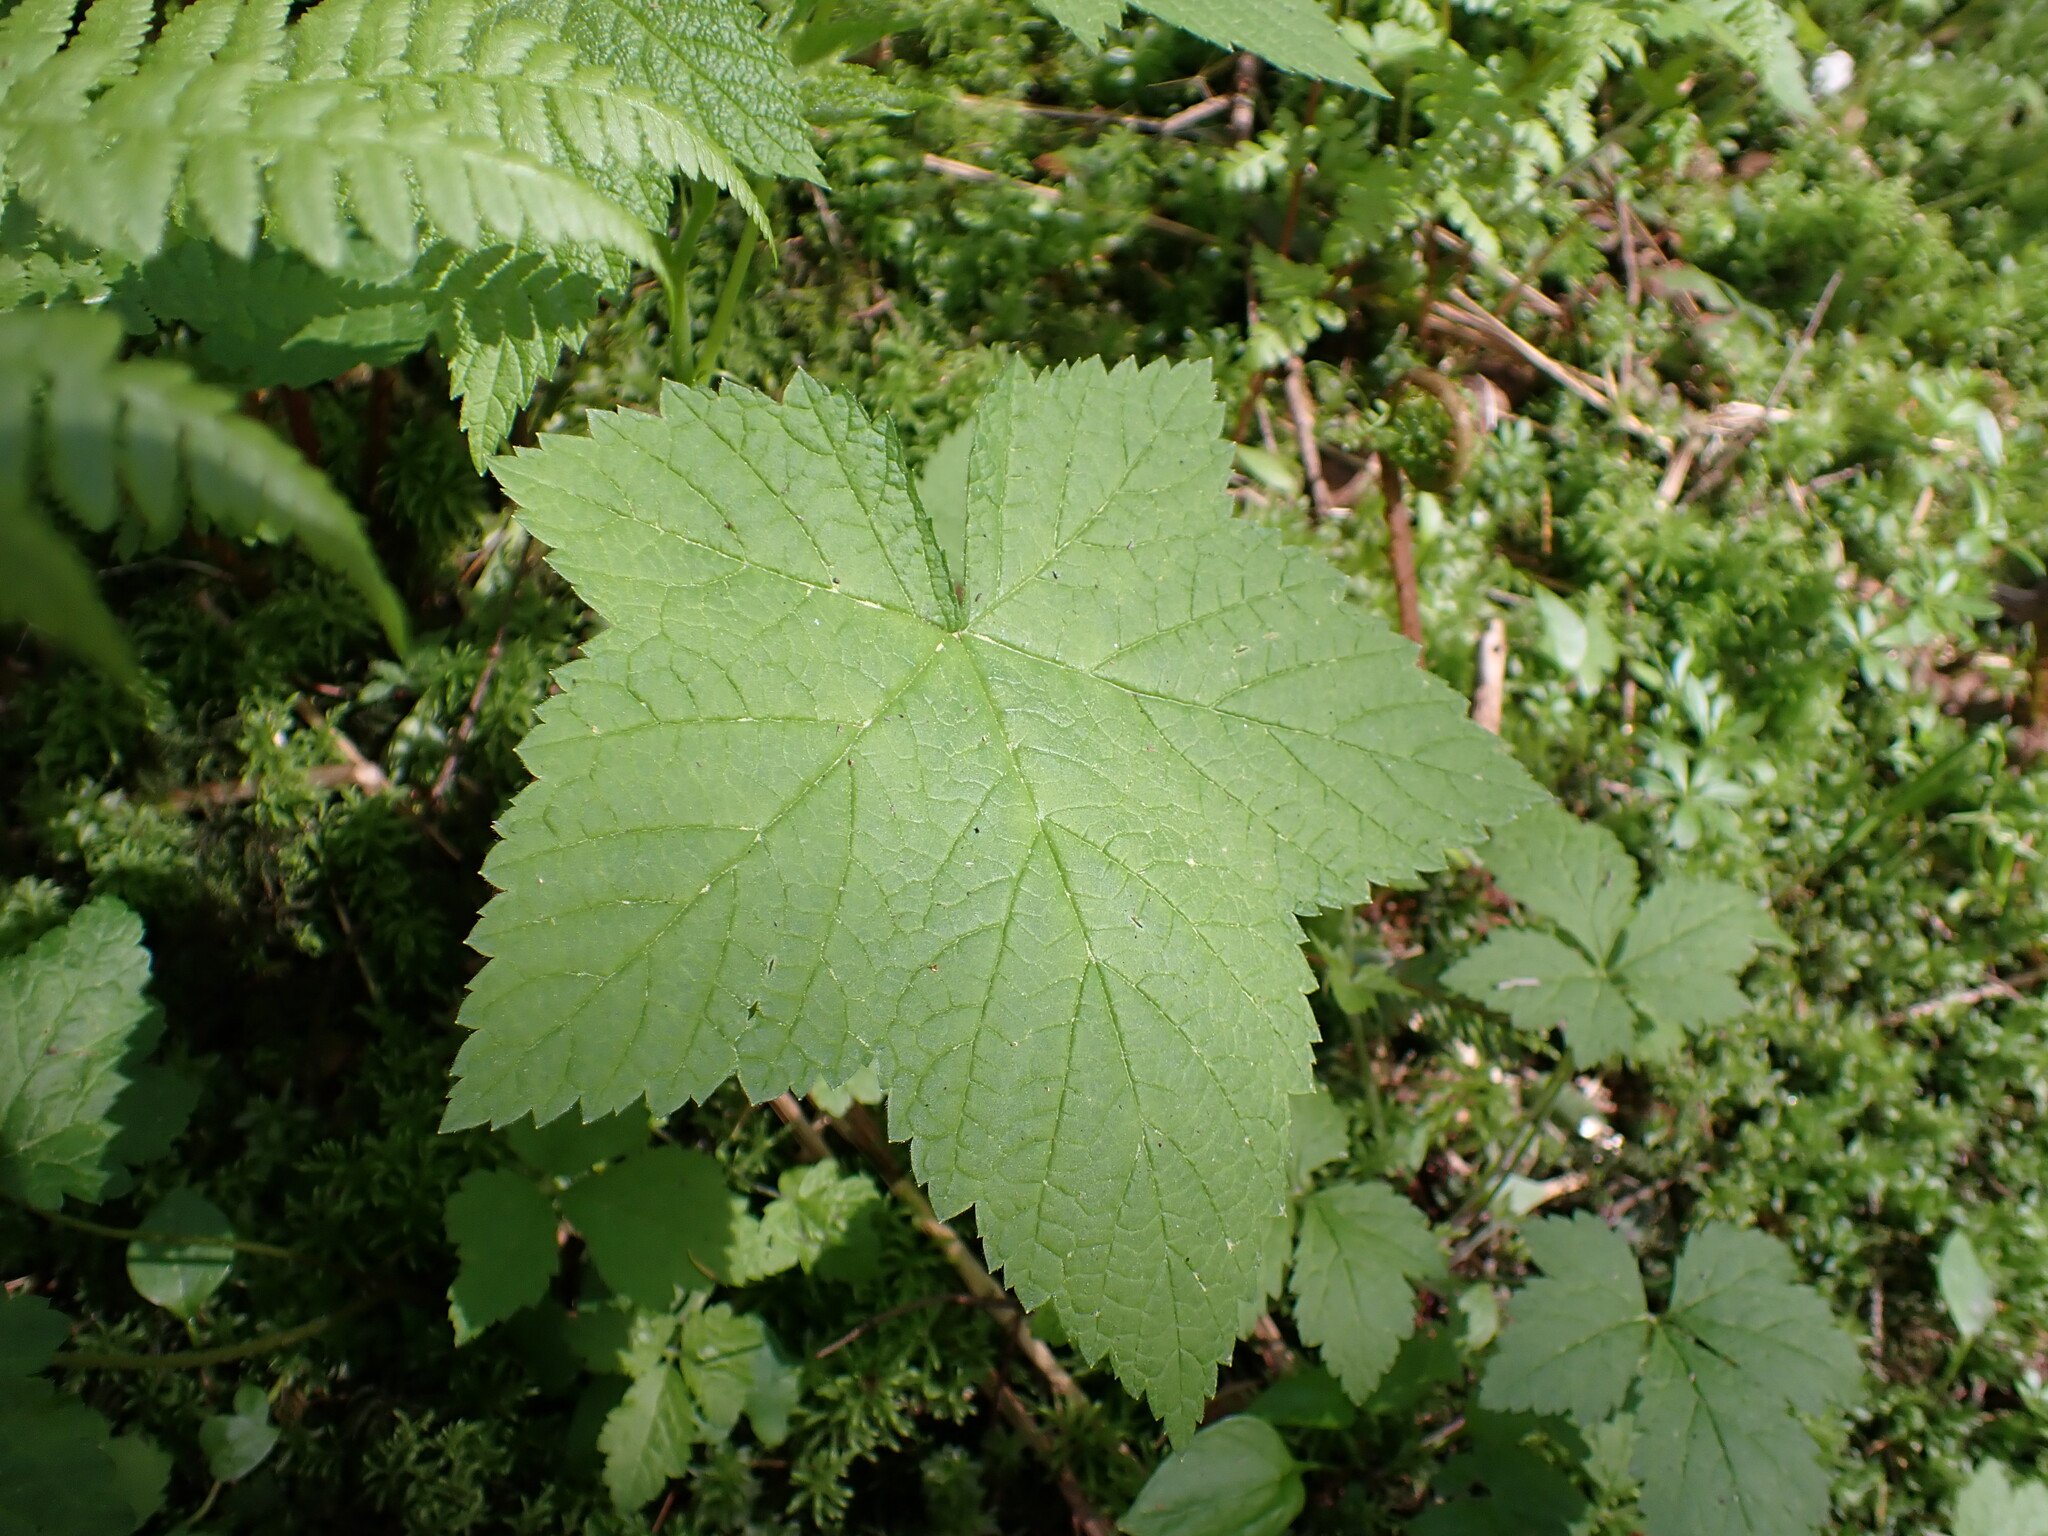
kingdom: Plantae
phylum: Tracheophyta
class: Magnoliopsida
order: Rosales
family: Rosaceae
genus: Rubus
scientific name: Rubus parviflorus
